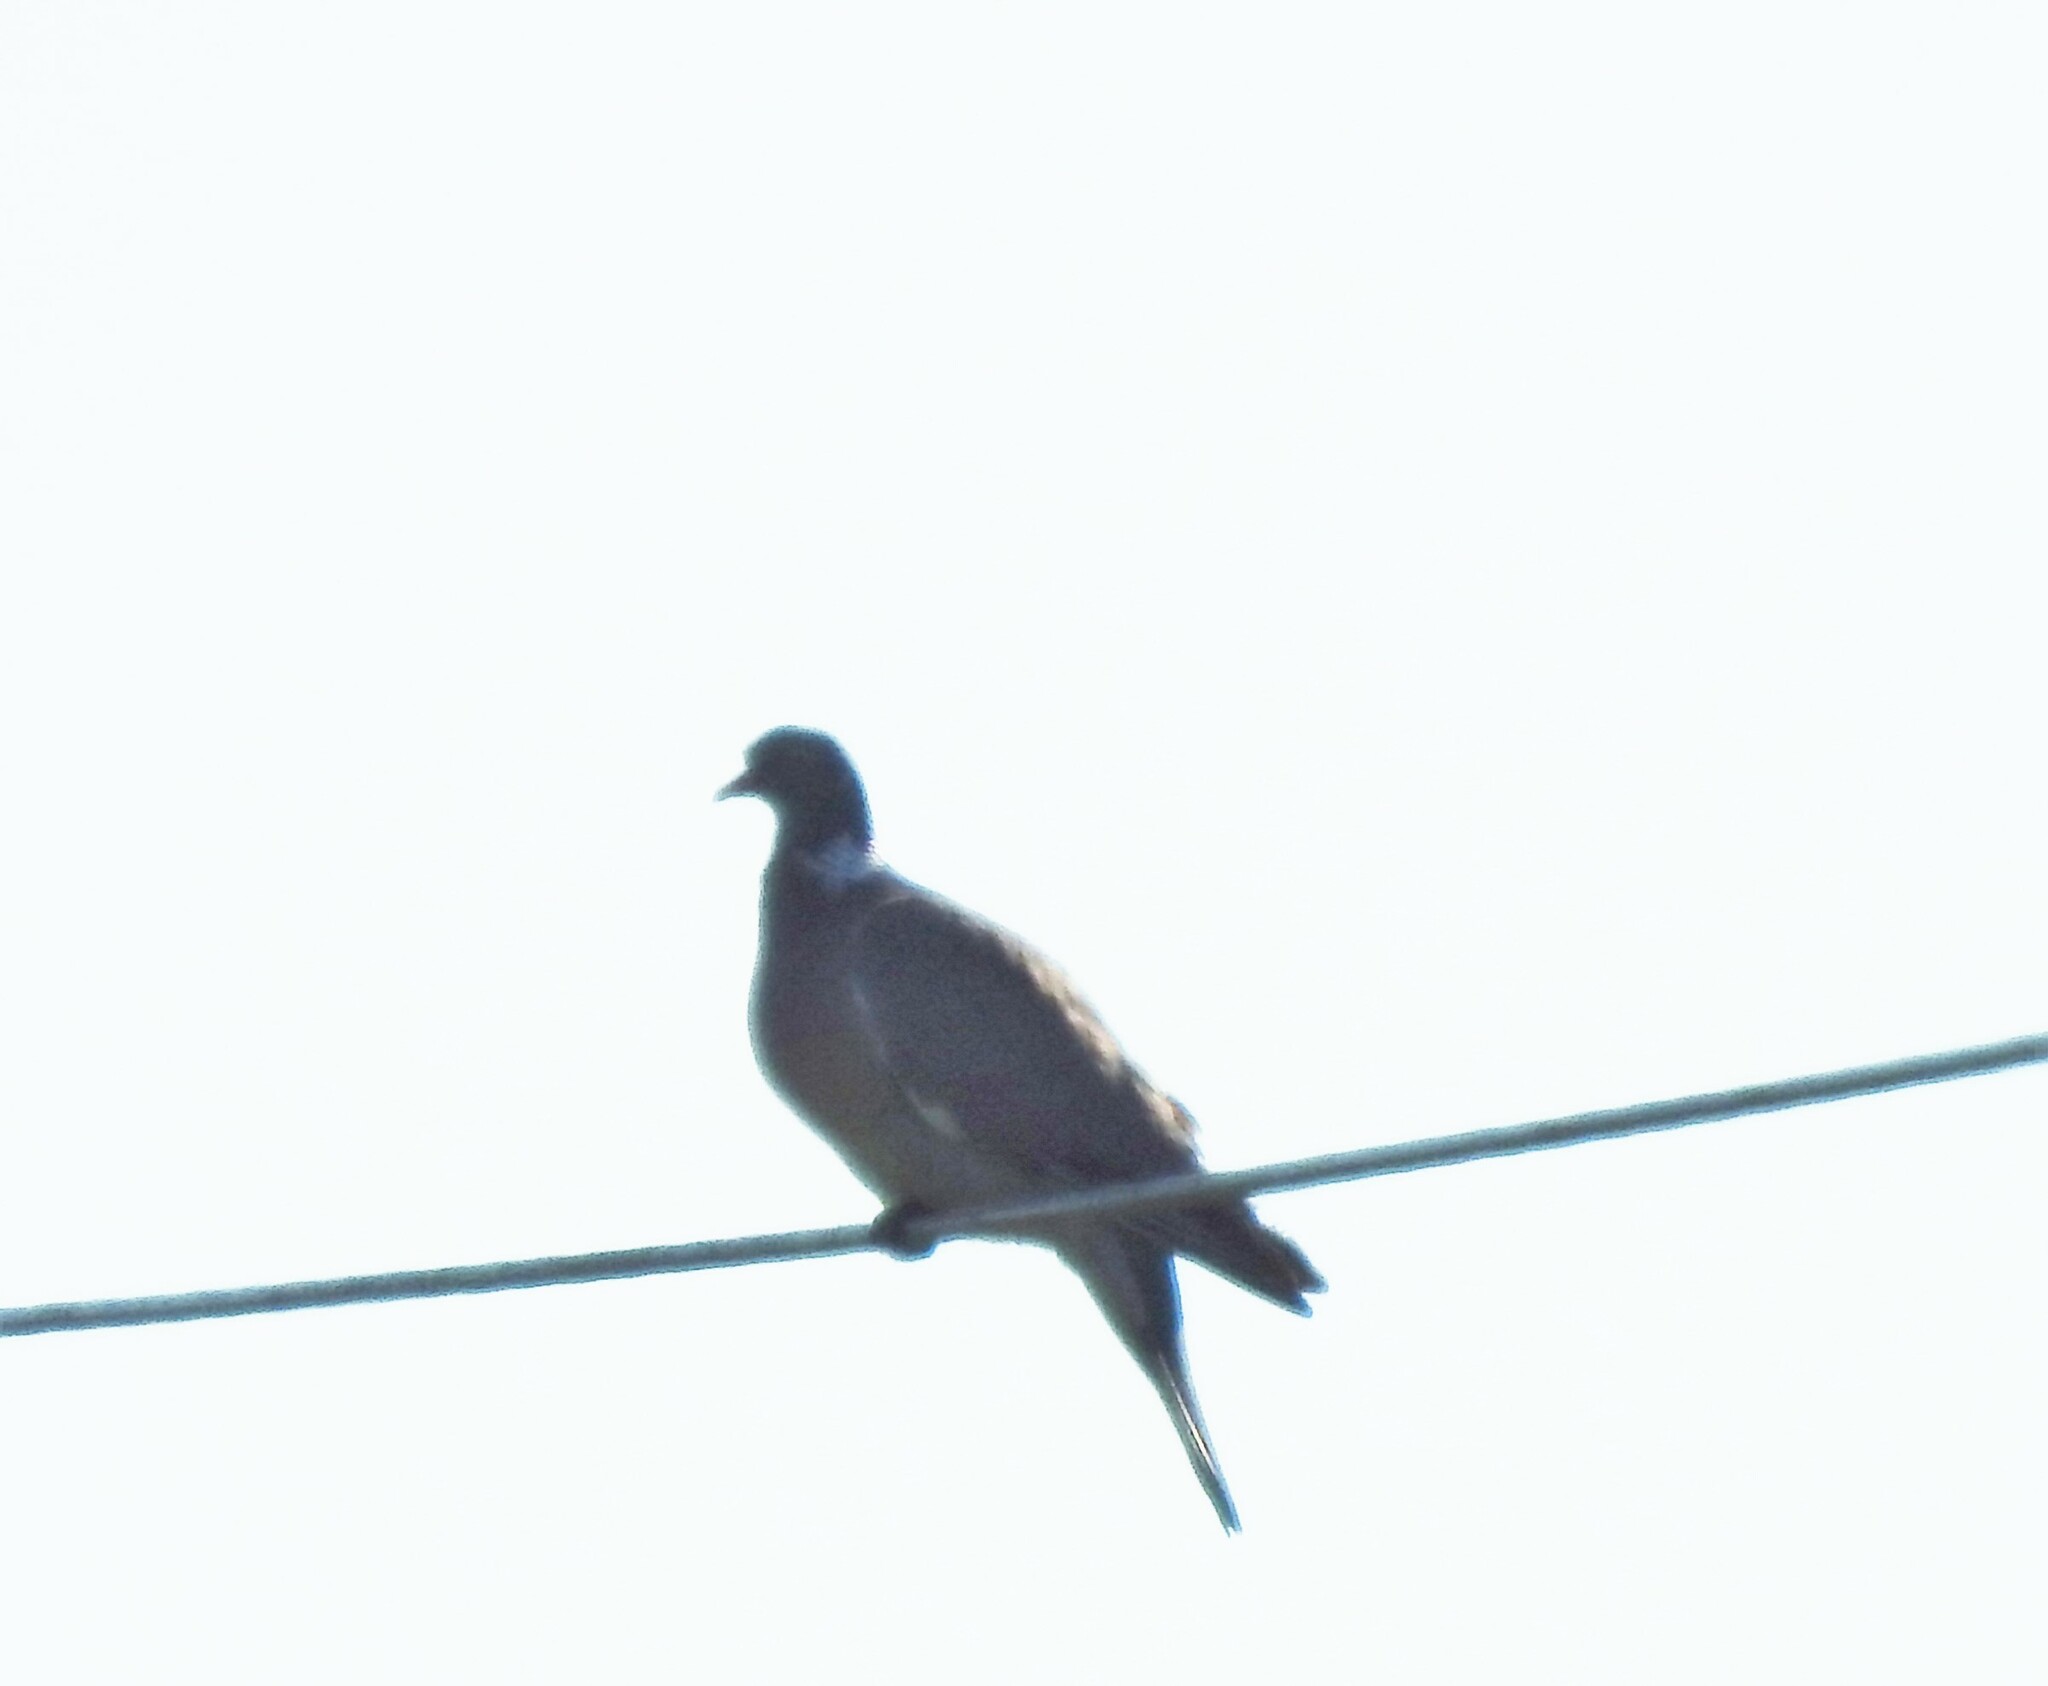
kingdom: Animalia
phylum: Chordata
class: Aves
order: Columbiformes
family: Columbidae
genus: Columba
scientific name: Columba palumbus
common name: Common wood pigeon
